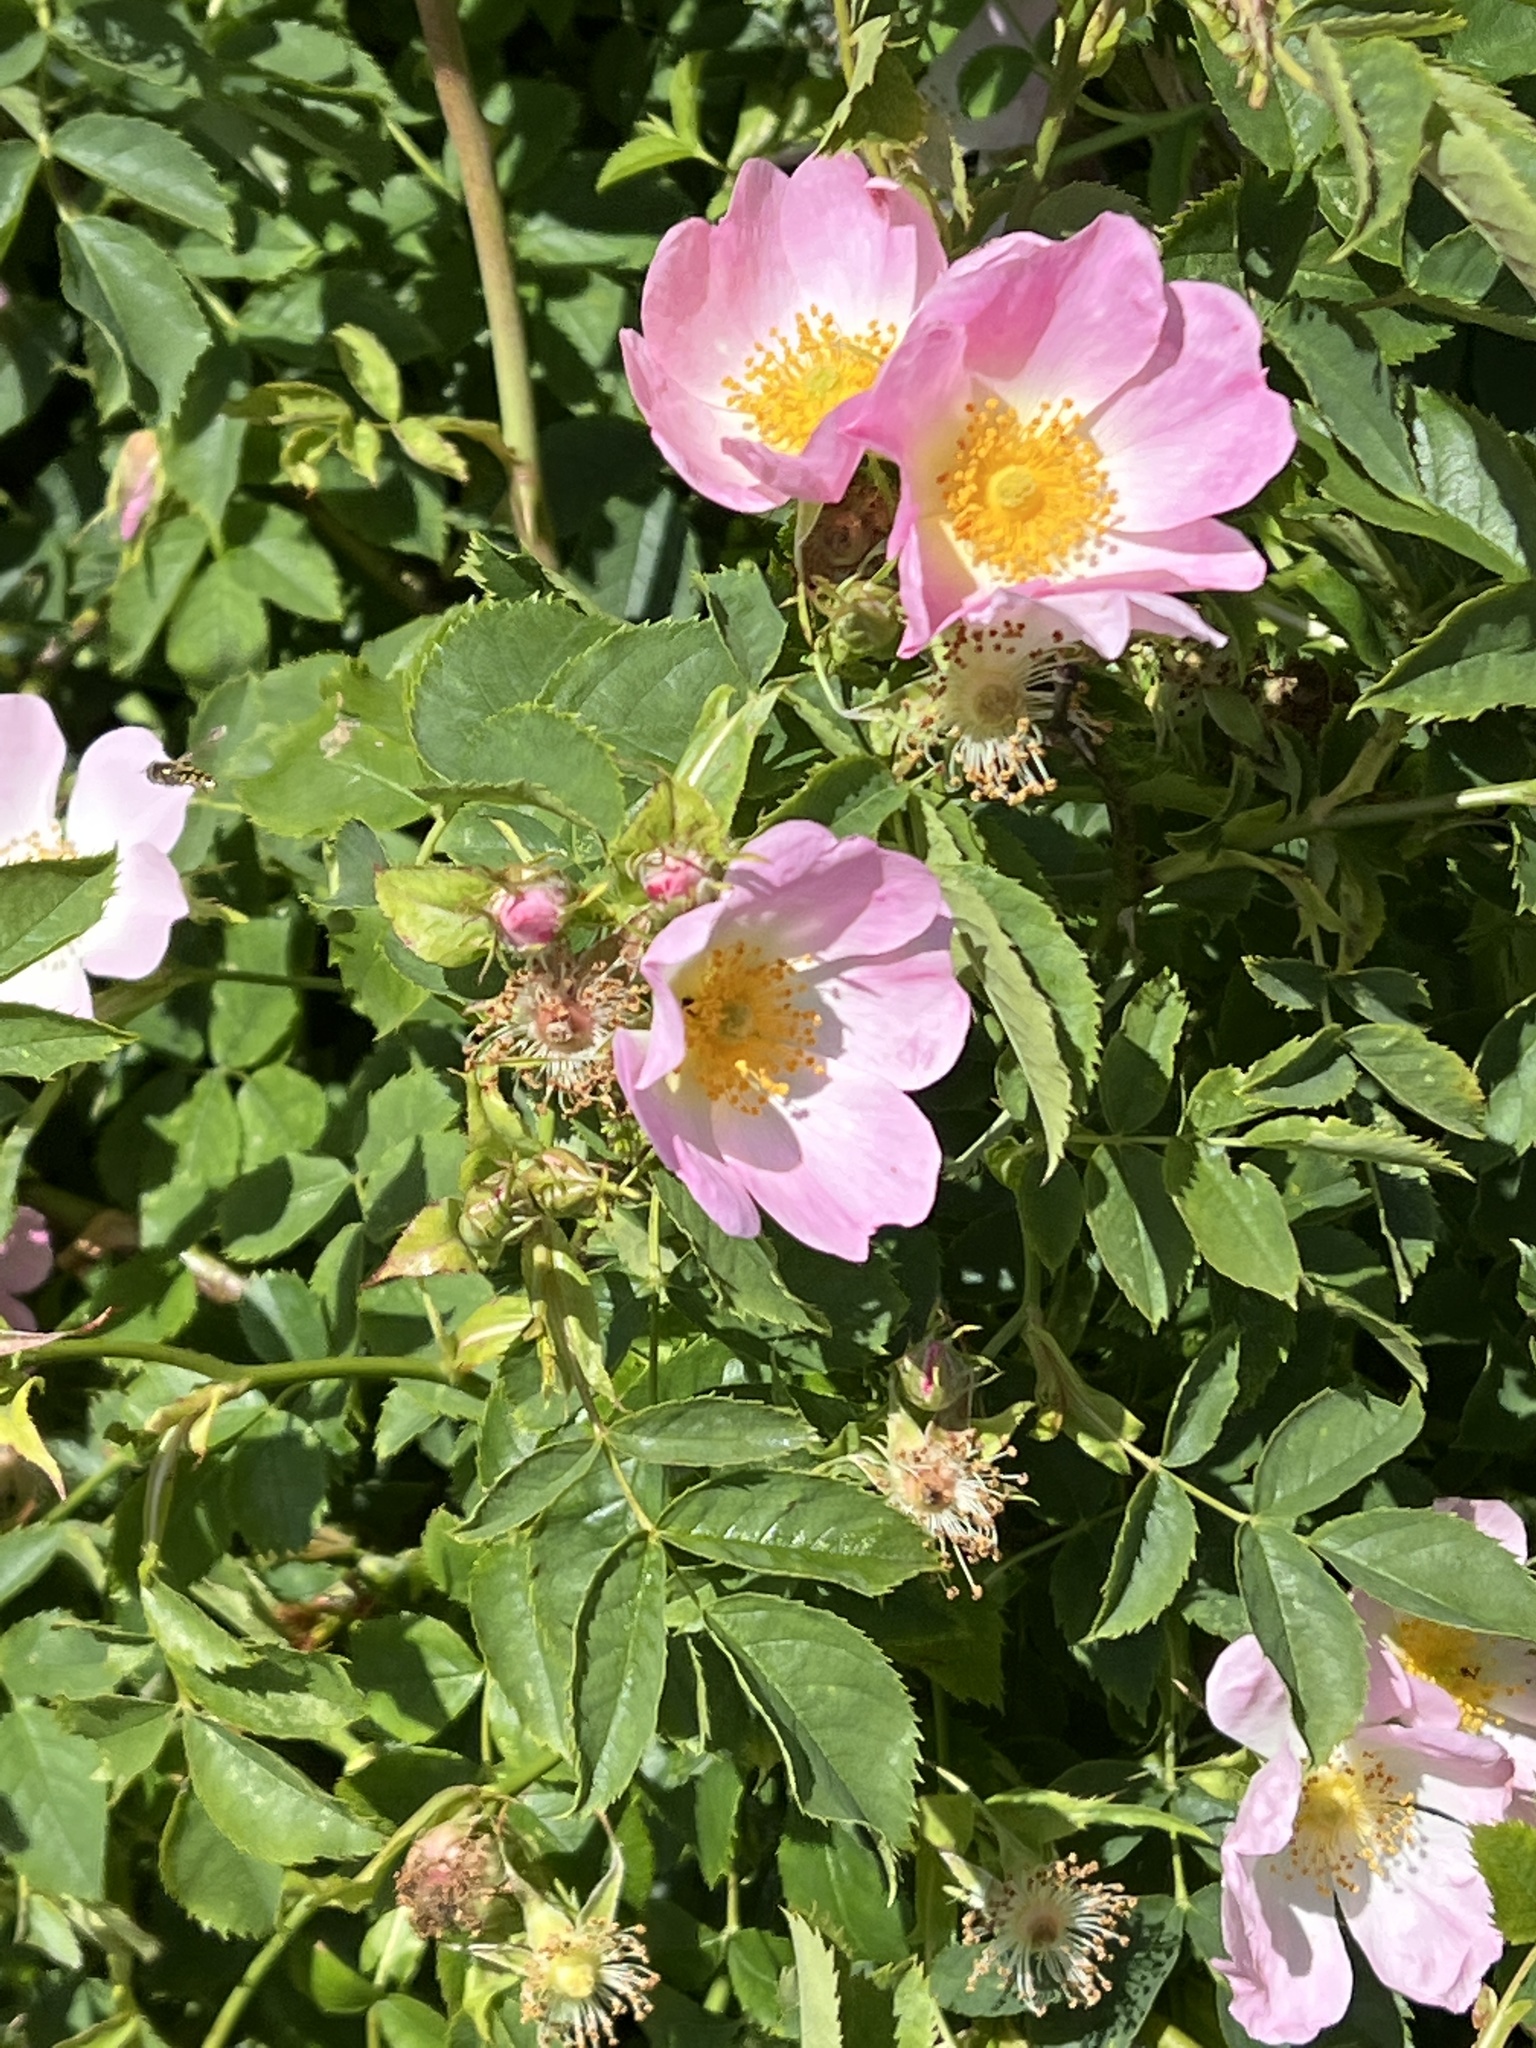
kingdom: Plantae
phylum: Tracheophyta
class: Magnoliopsida
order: Rosales
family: Rosaceae
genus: Rosa
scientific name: Rosa canina
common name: Dog rose
